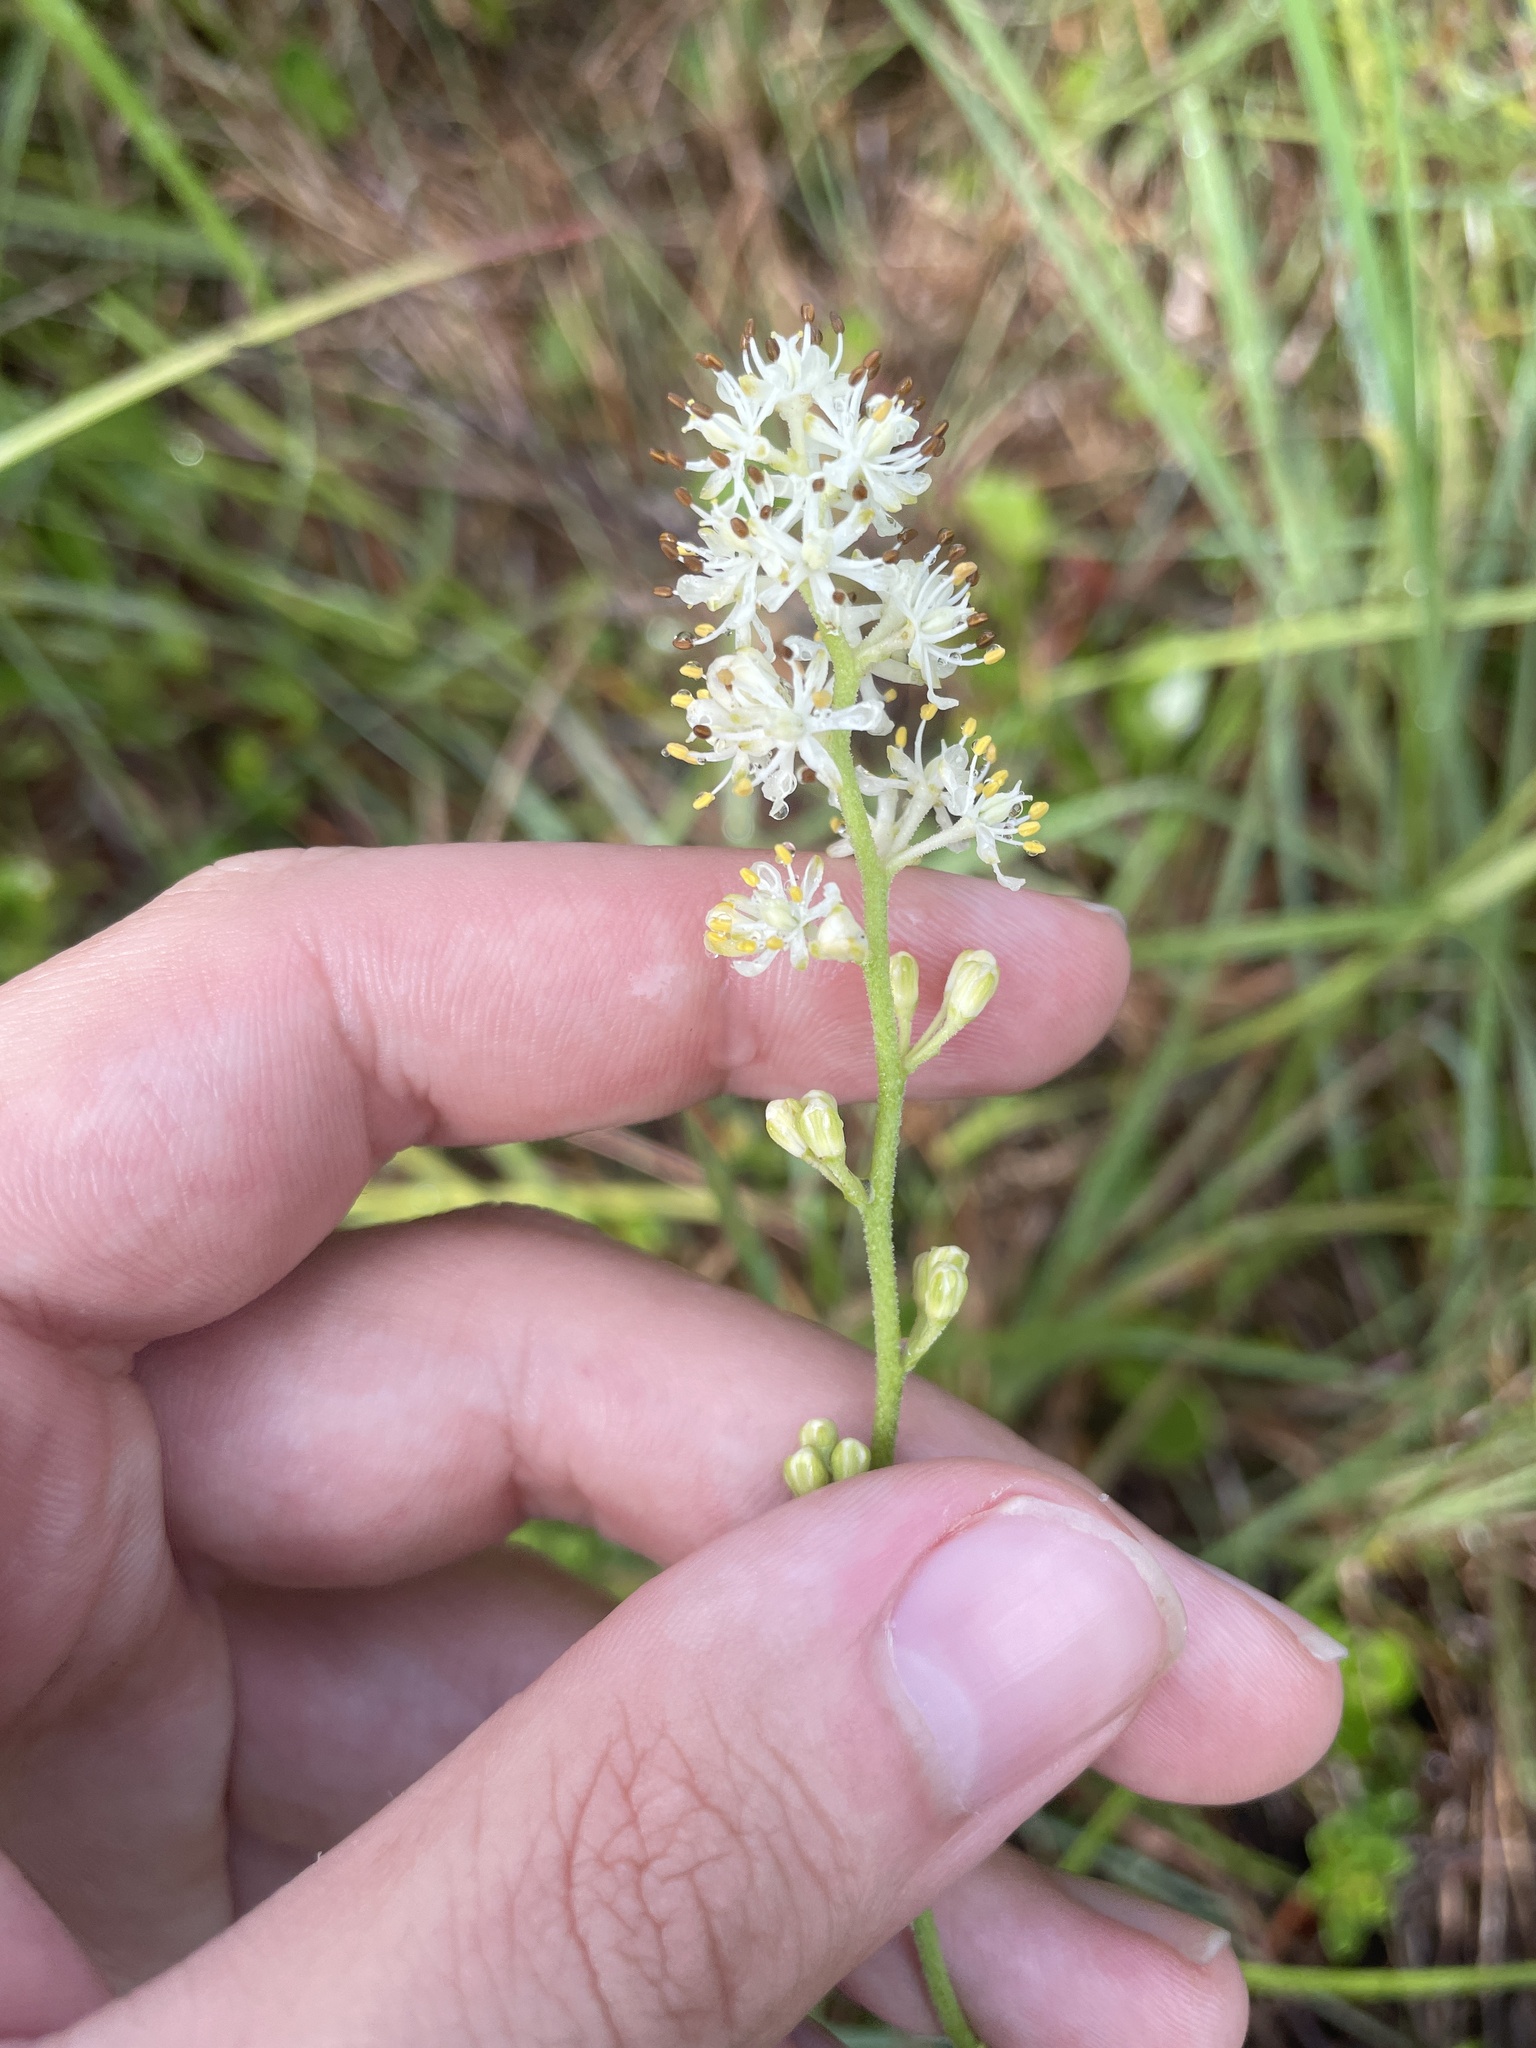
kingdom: Plantae
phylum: Tracheophyta
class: Liliopsida
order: Alismatales
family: Tofieldiaceae
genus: Triantha
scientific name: Triantha racemosa
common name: Coastal false asphodel
